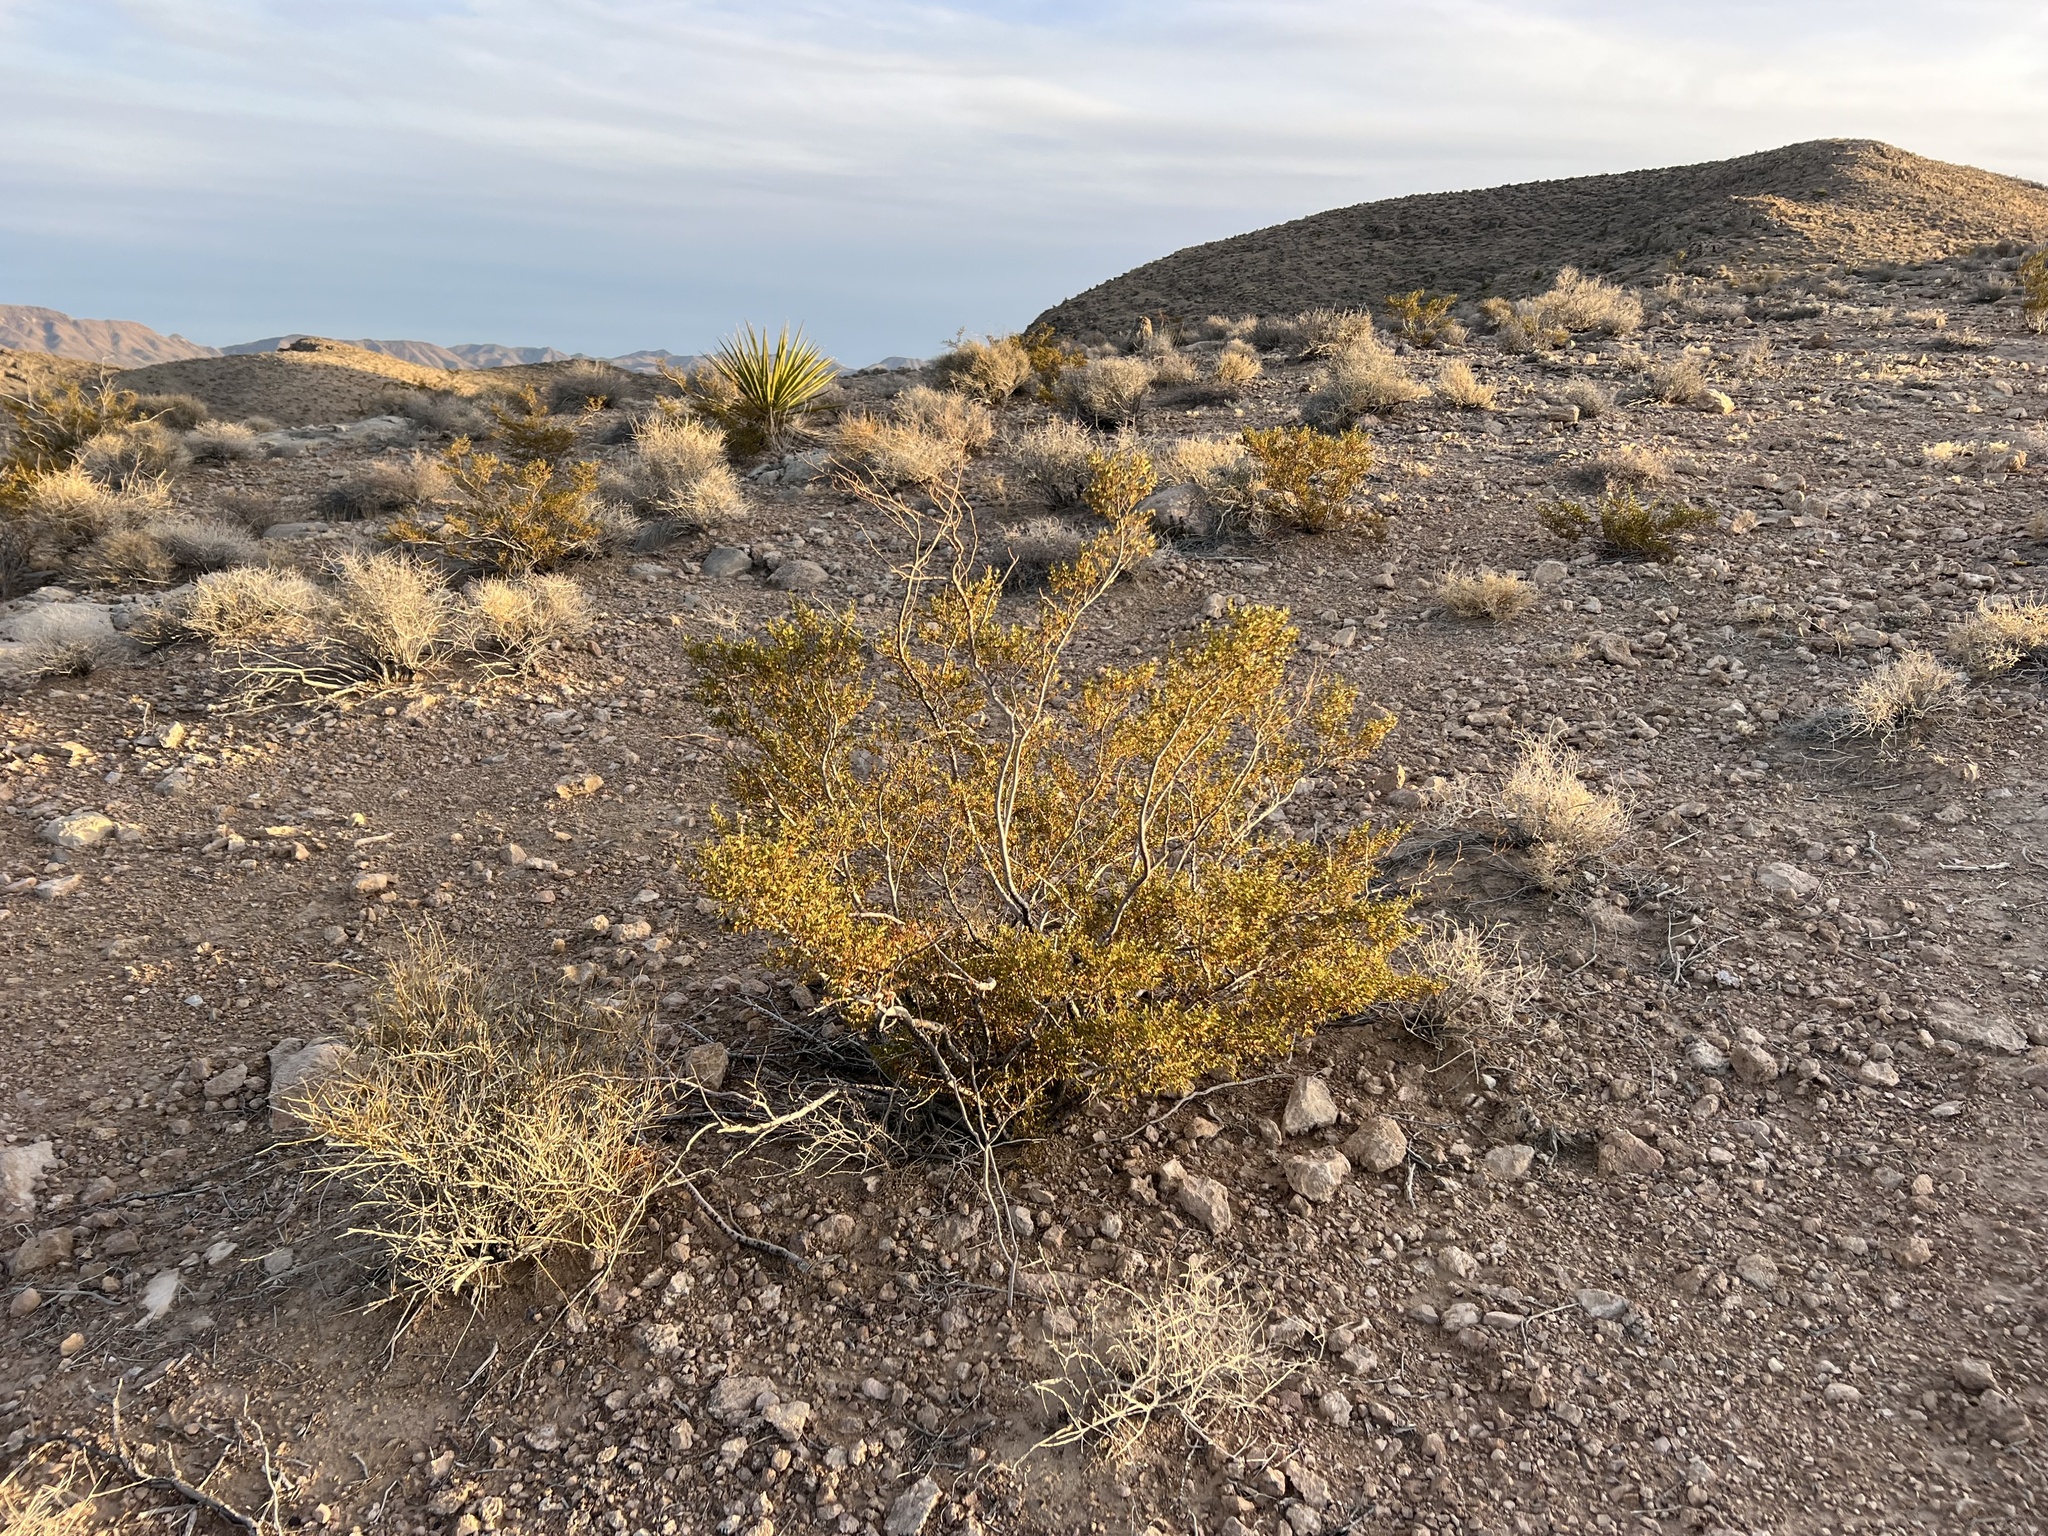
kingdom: Plantae
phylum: Tracheophyta
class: Magnoliopsida
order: Zygophyllales
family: Zygophyllaceae
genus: Larrea
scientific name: Larrea tridentata
